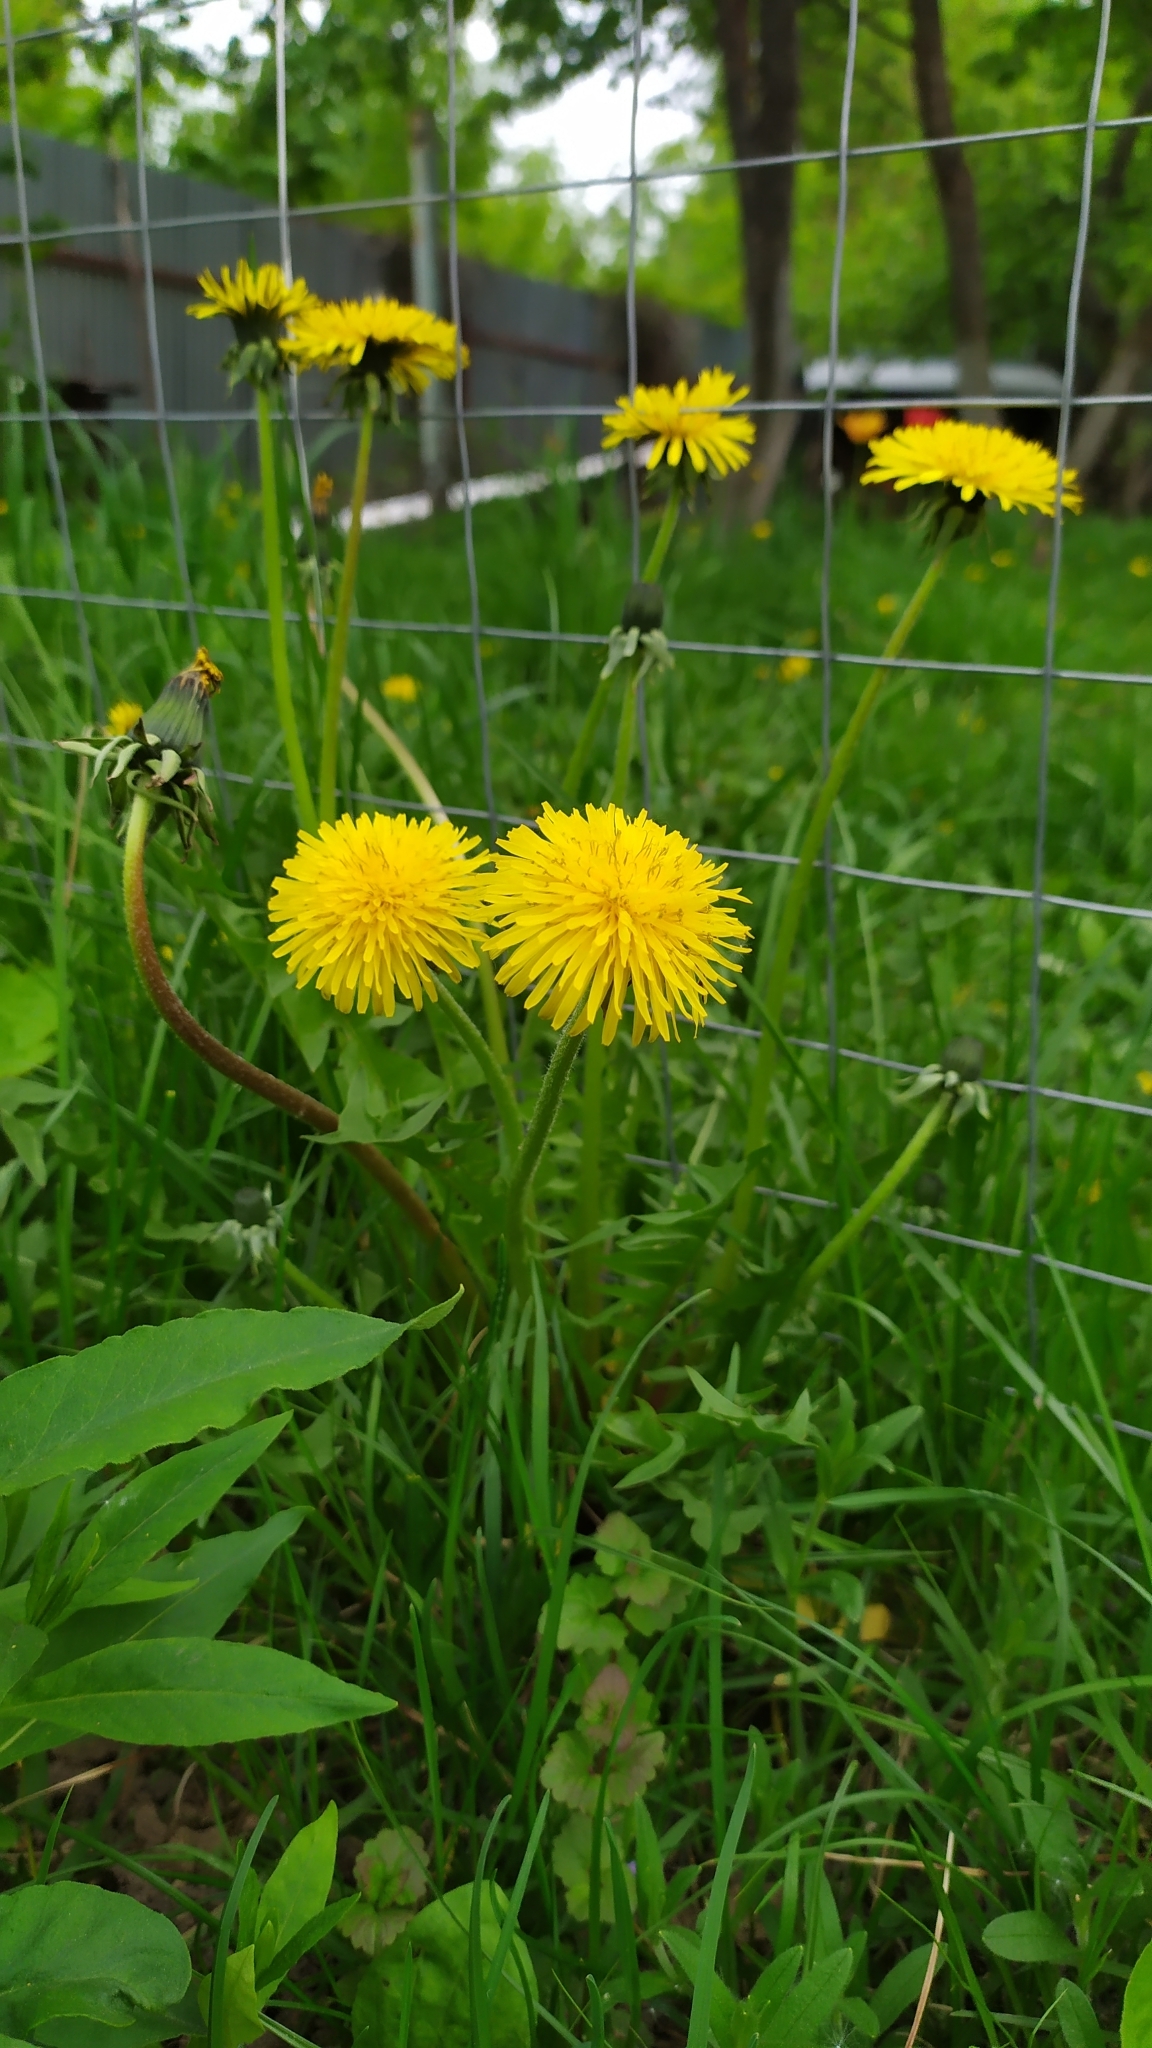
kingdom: Plantae
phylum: Tracheophyta
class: Magnoliopsida
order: Asterales
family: Asteraceae
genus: Taraxacum
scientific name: Taraxacum officinale
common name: Common dandelion
